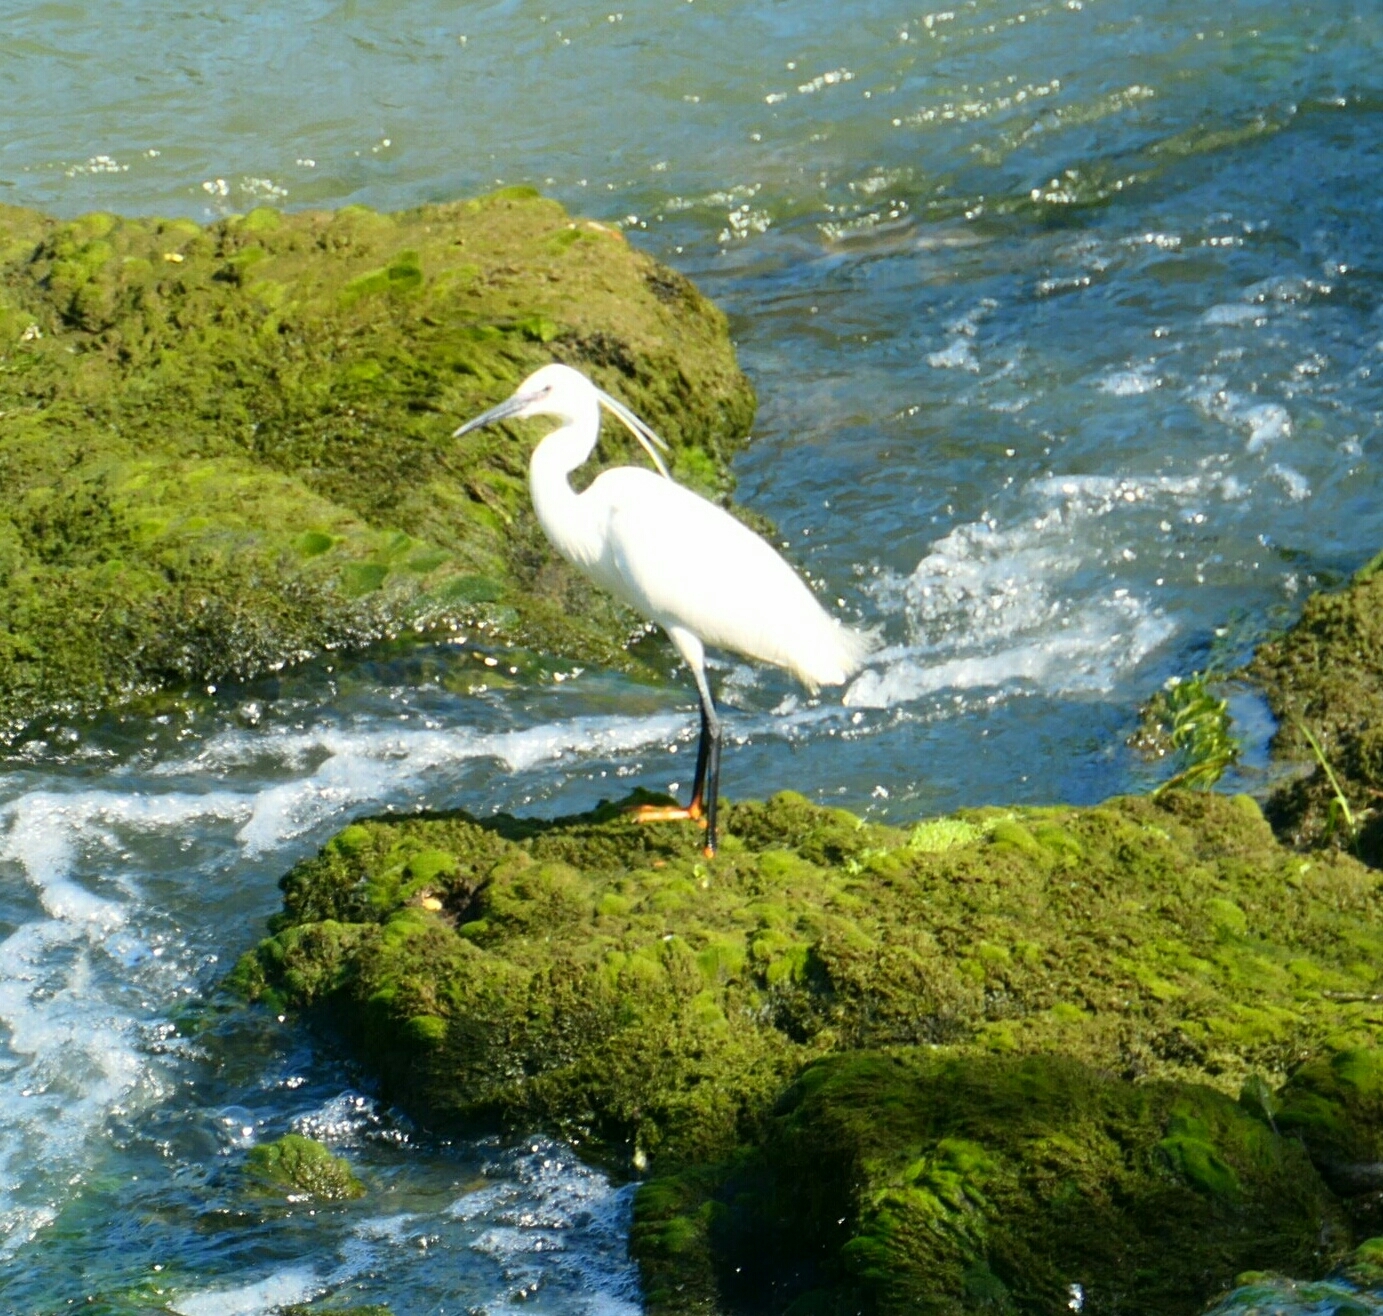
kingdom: Animalia
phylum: Chordata
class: Aves
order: Pelecaniformes
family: Ardeidae
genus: Egretta
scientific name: Egretta garzetta
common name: Little egret
